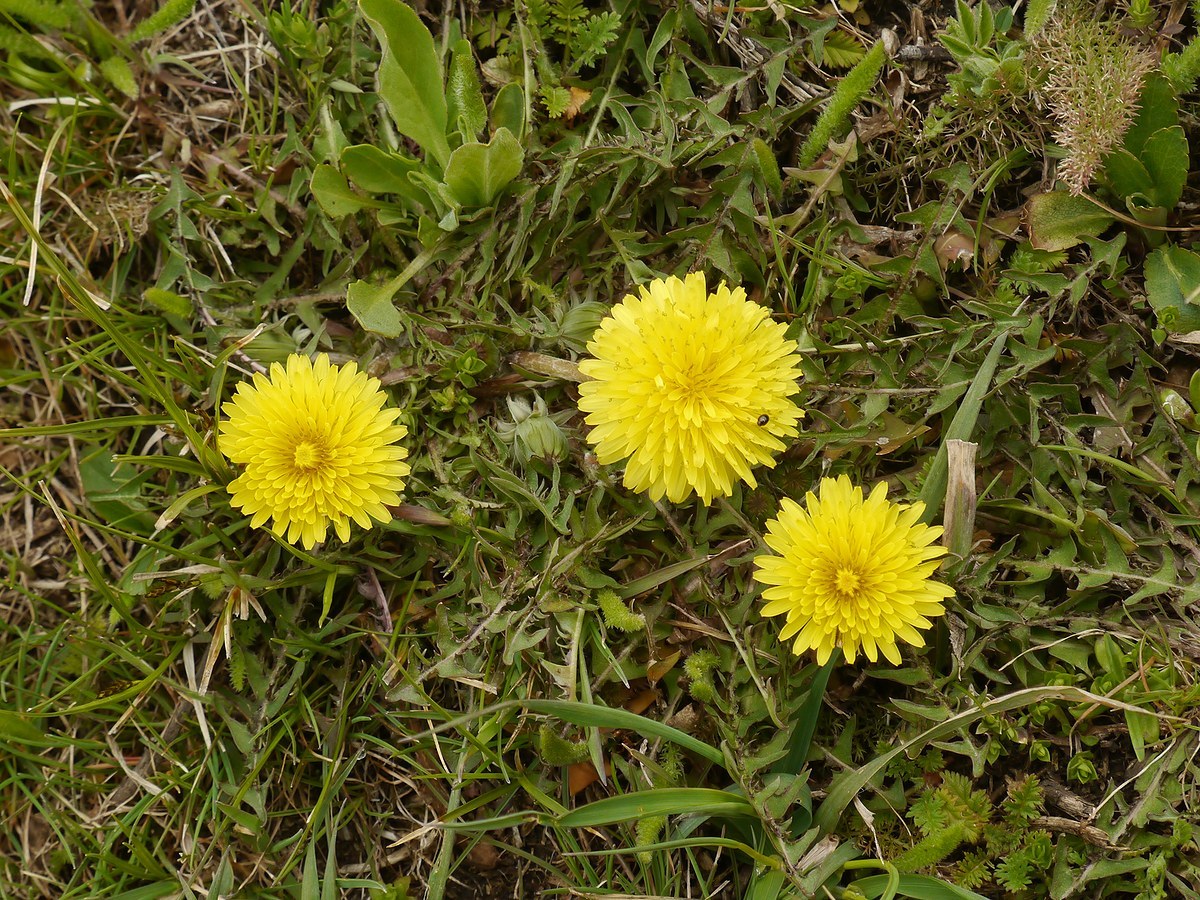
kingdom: Plantae
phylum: Tracheophyta
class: Magnoliopsida
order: Asterales
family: Asteraceae
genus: Taraxacum
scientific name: Taraxacum officinale
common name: Common dandelion
